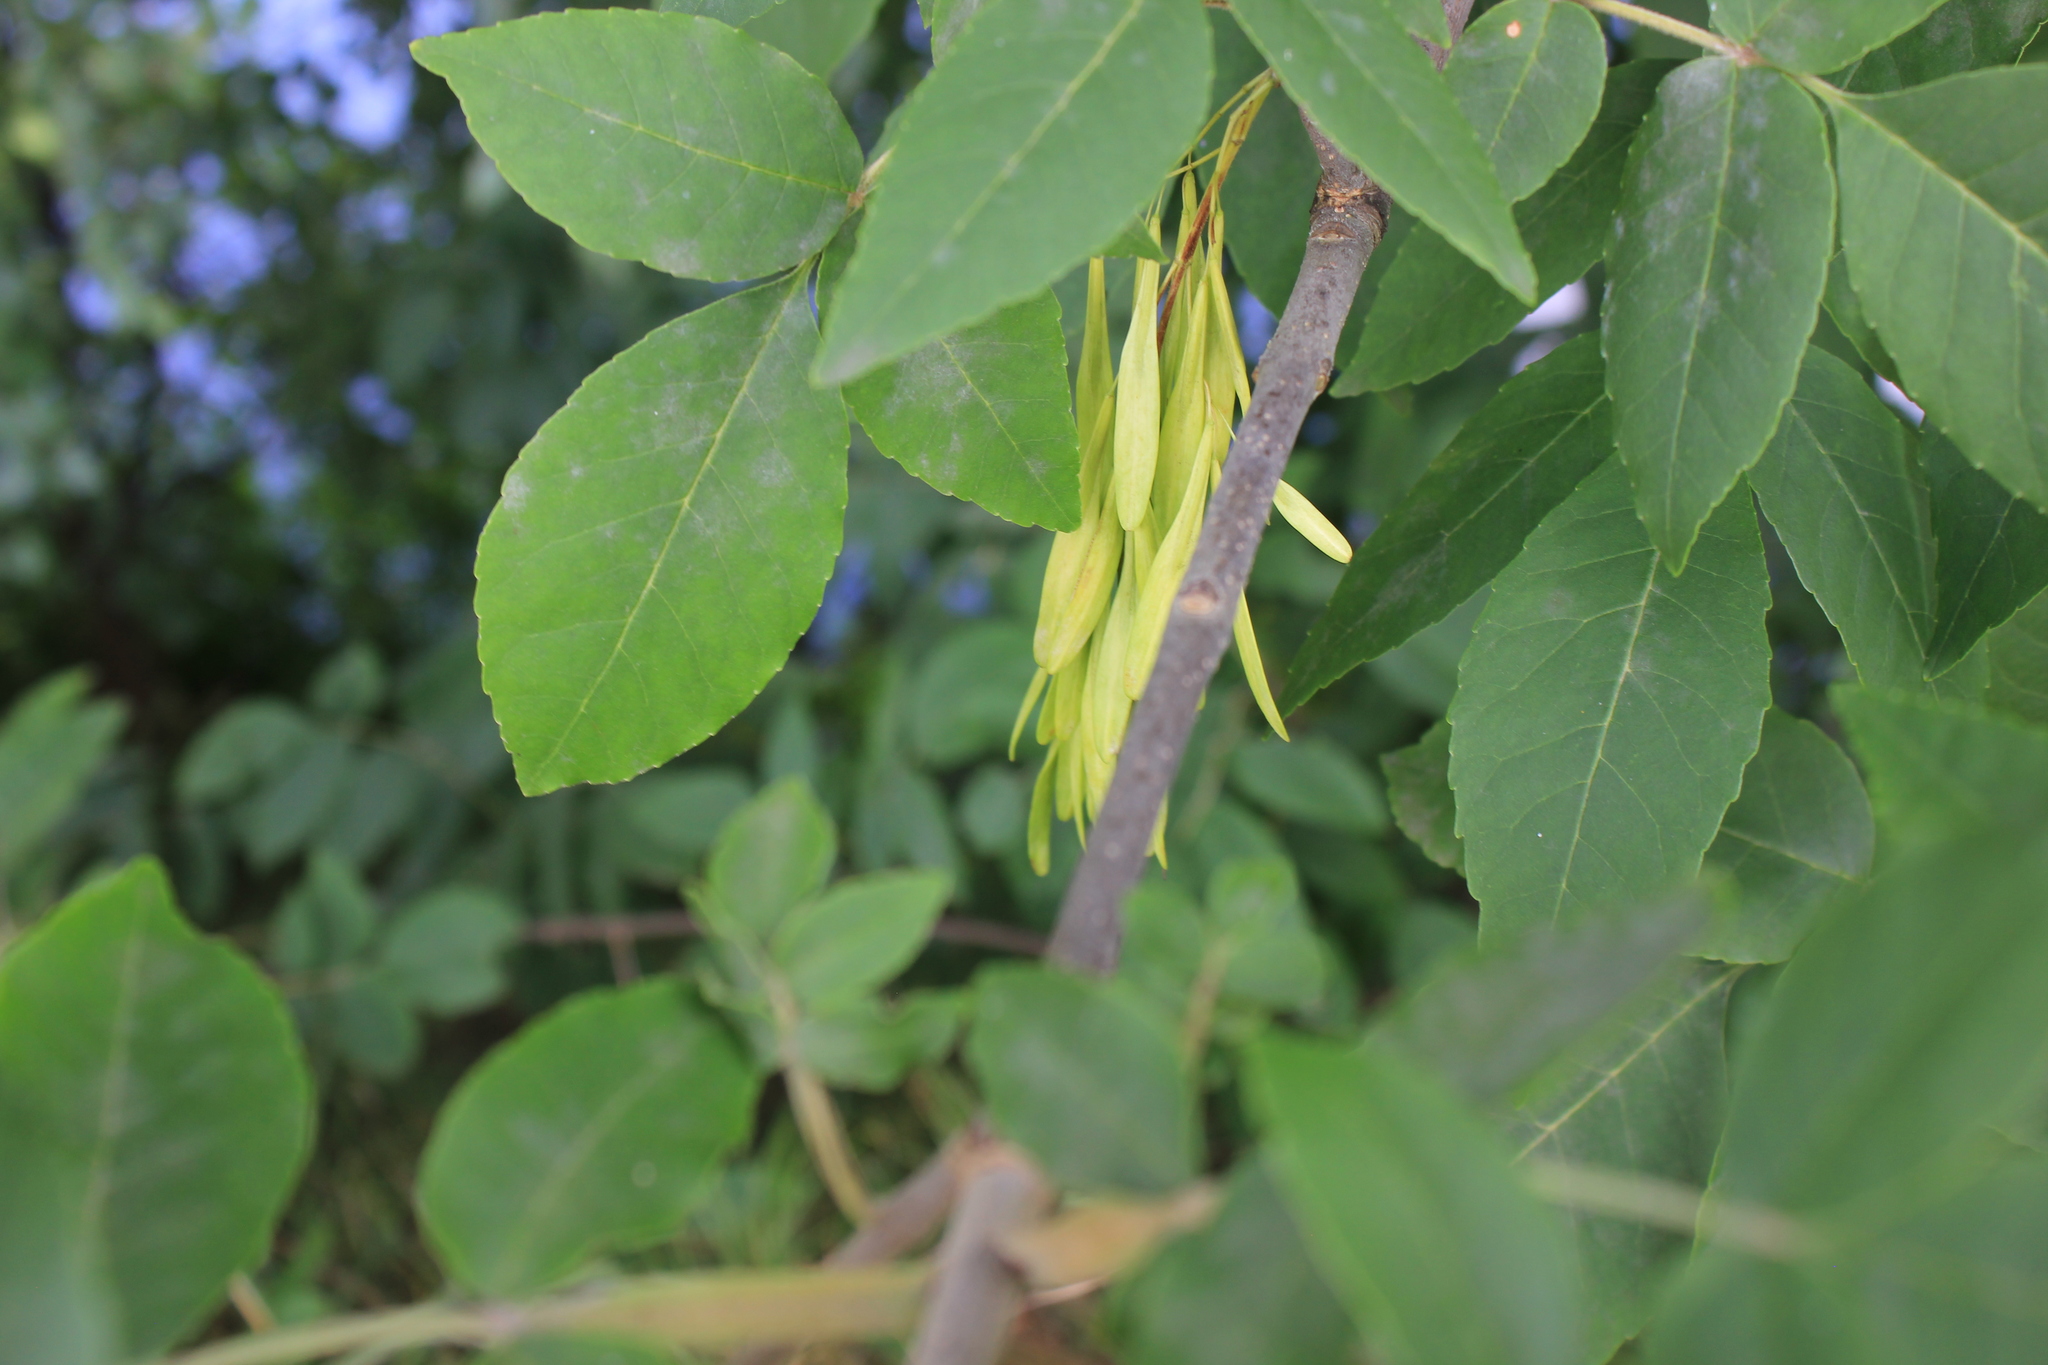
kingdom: Plantae
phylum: Tracheophyta
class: Magnoliopsida
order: Lamiales
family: Oleaceae
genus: Fraxinus
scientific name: Fraxinus pennsylvanica
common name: Green ash
